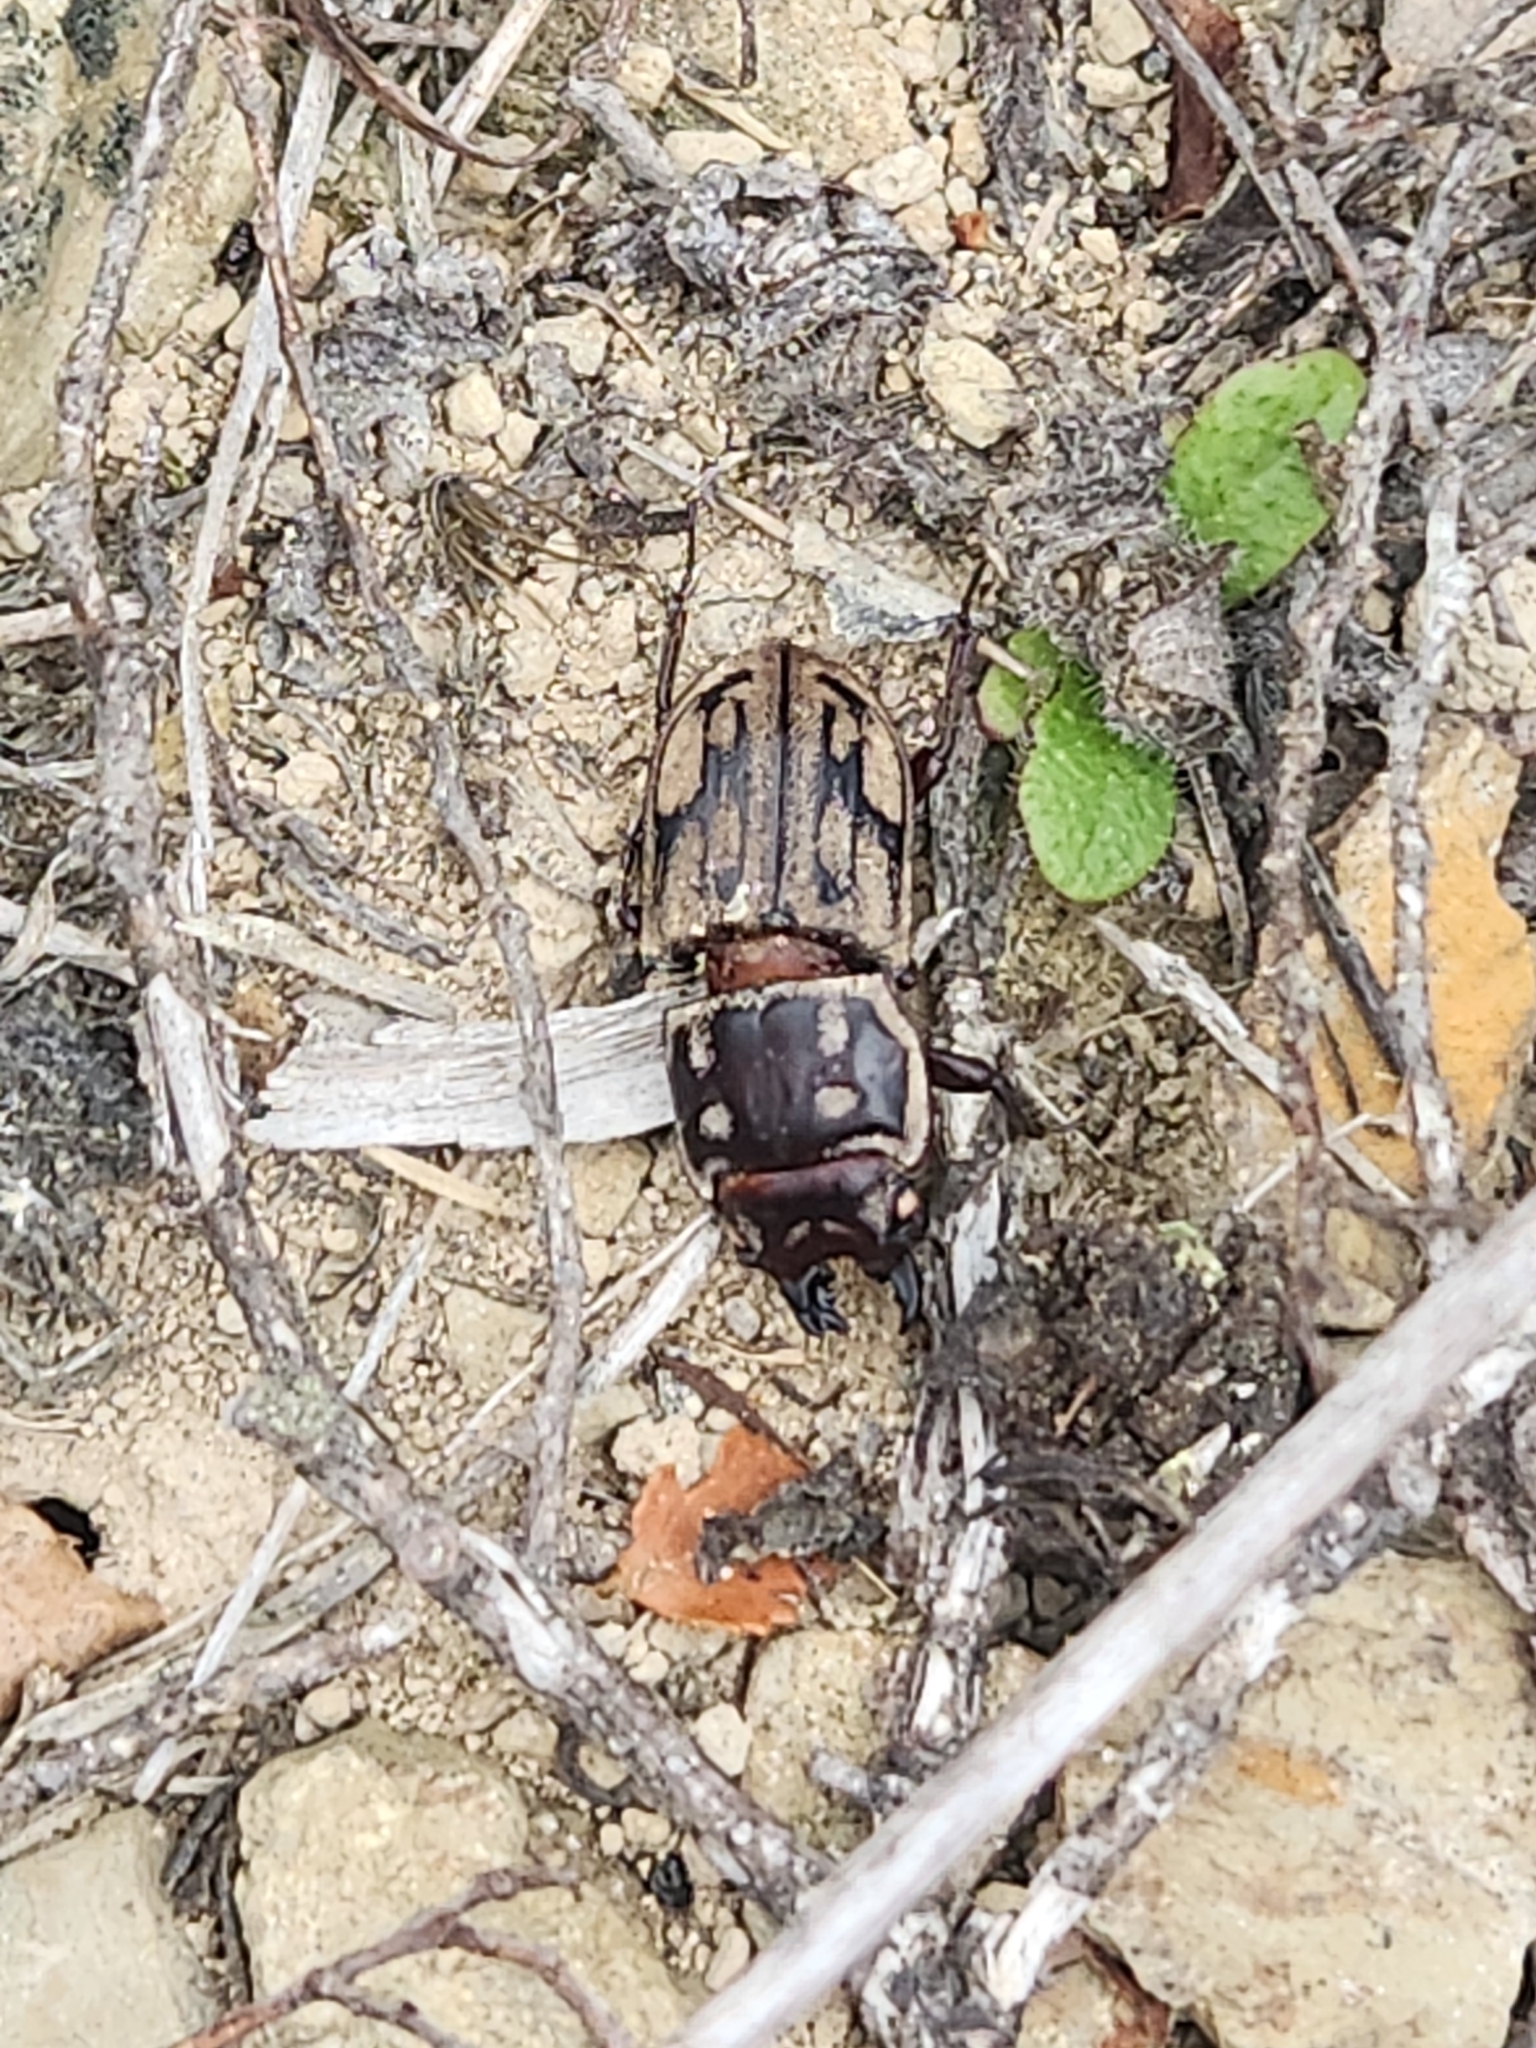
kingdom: Animalia
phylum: Arthropoda
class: Insecta
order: Coleoptera
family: Lucanidae
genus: Paralissotes
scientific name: Paralissotes reticulatus
